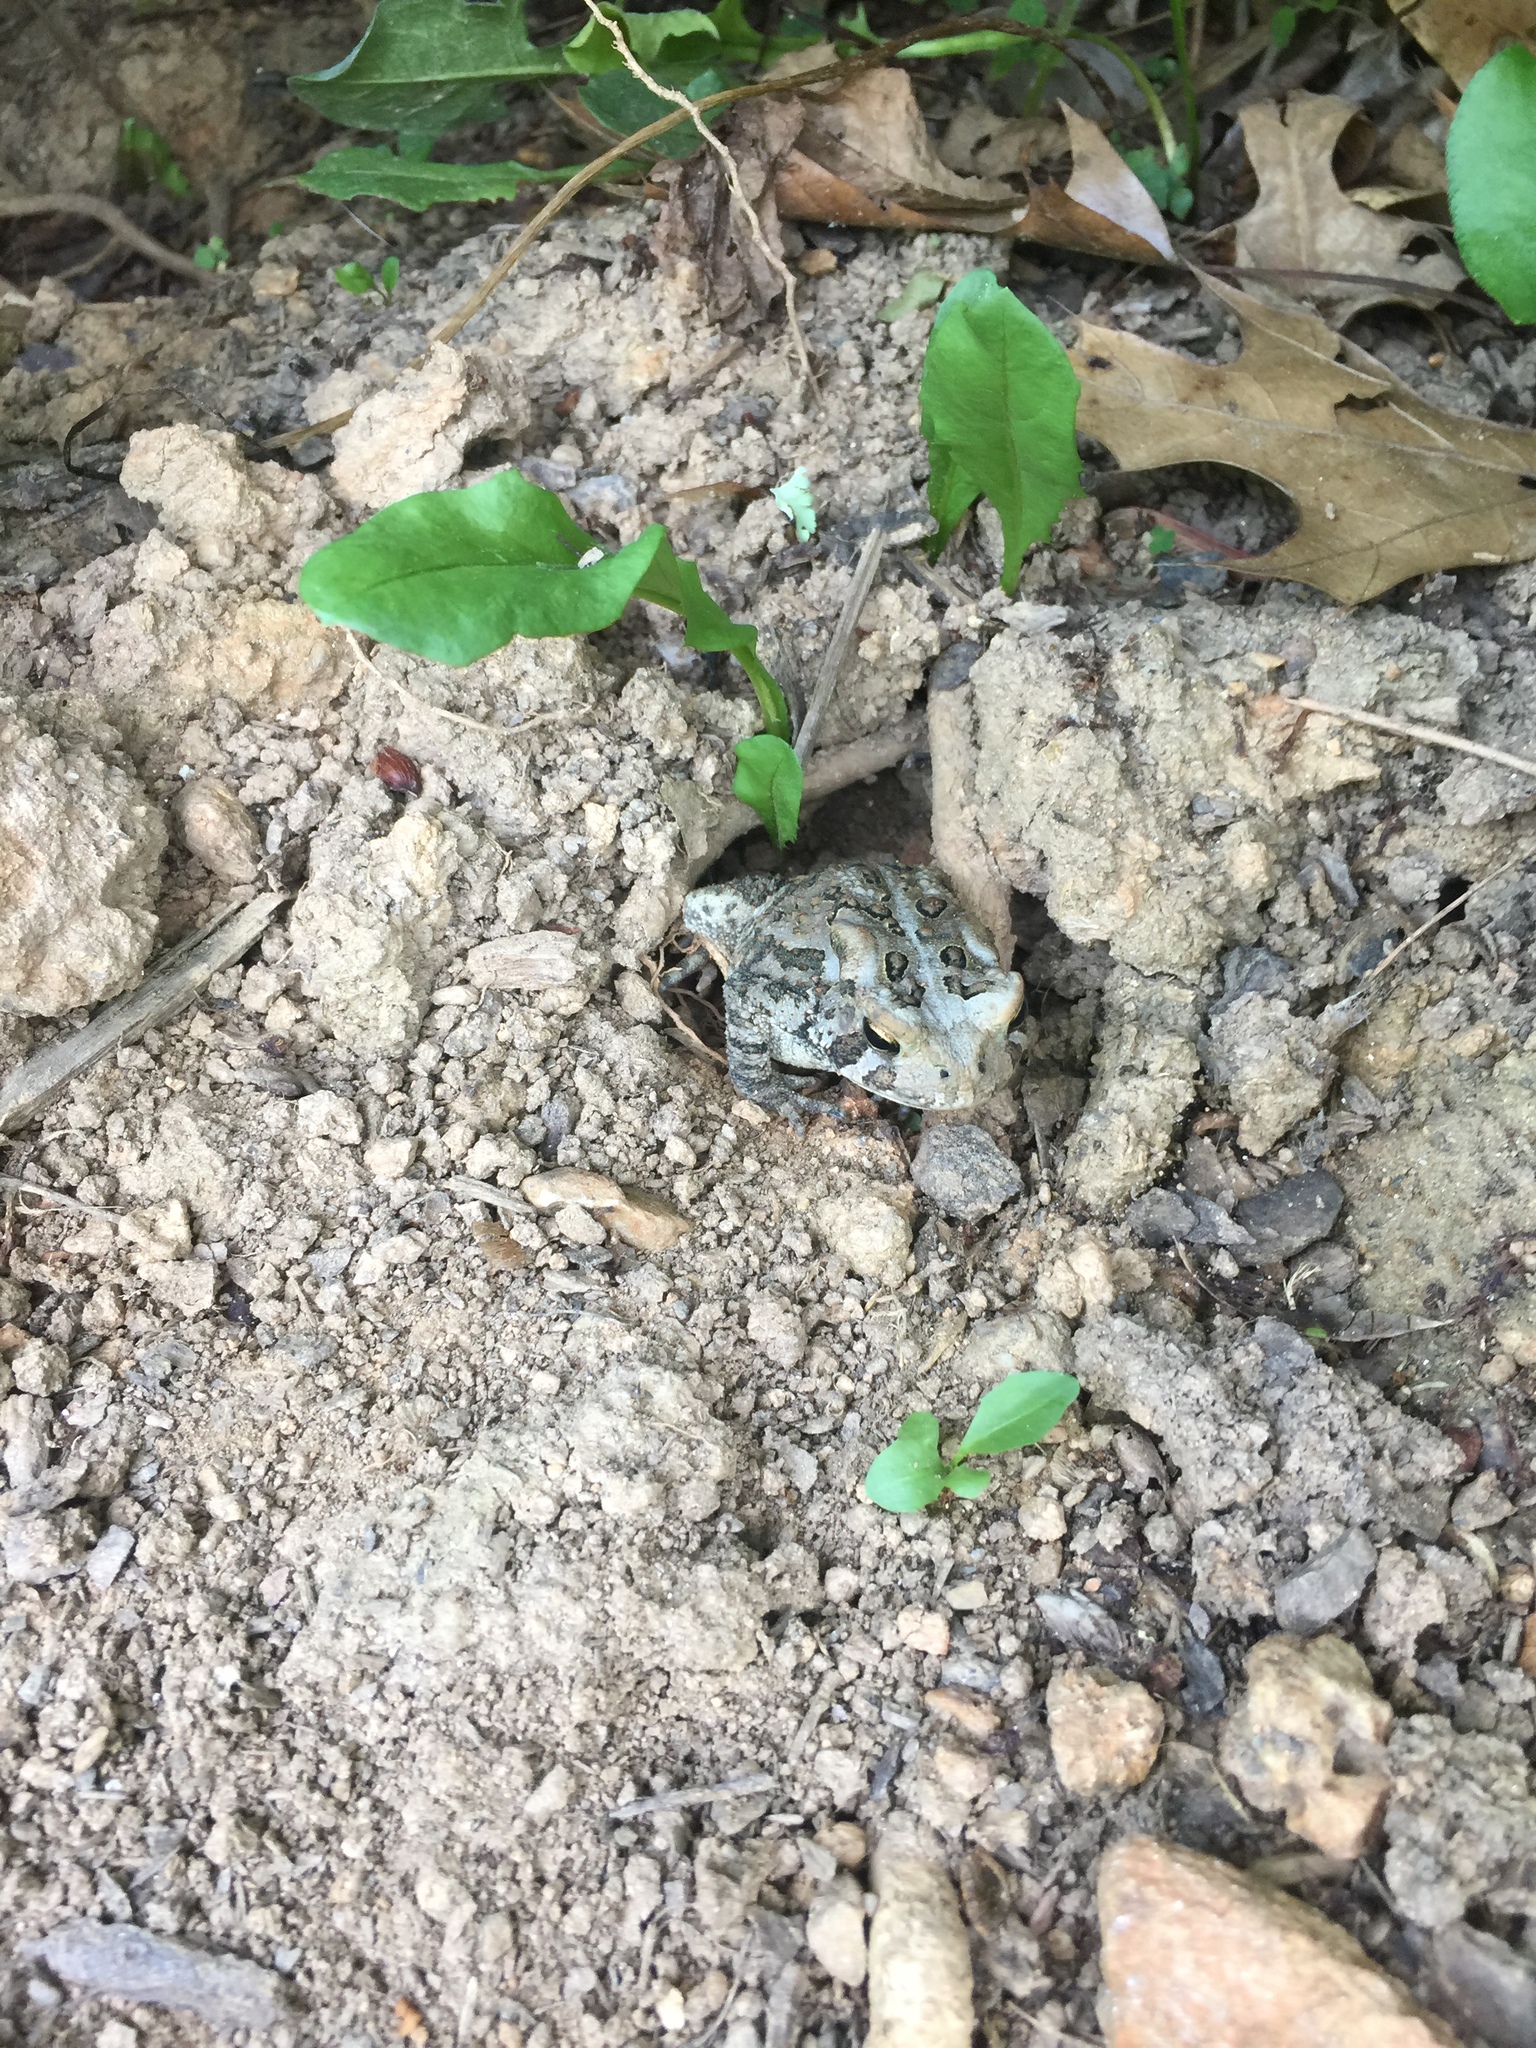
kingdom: Animalia
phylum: Chordata
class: Amphibia
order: Anura
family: Bufonidae
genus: Anaxyrus
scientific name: Anaxyrus americanus
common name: American toad
